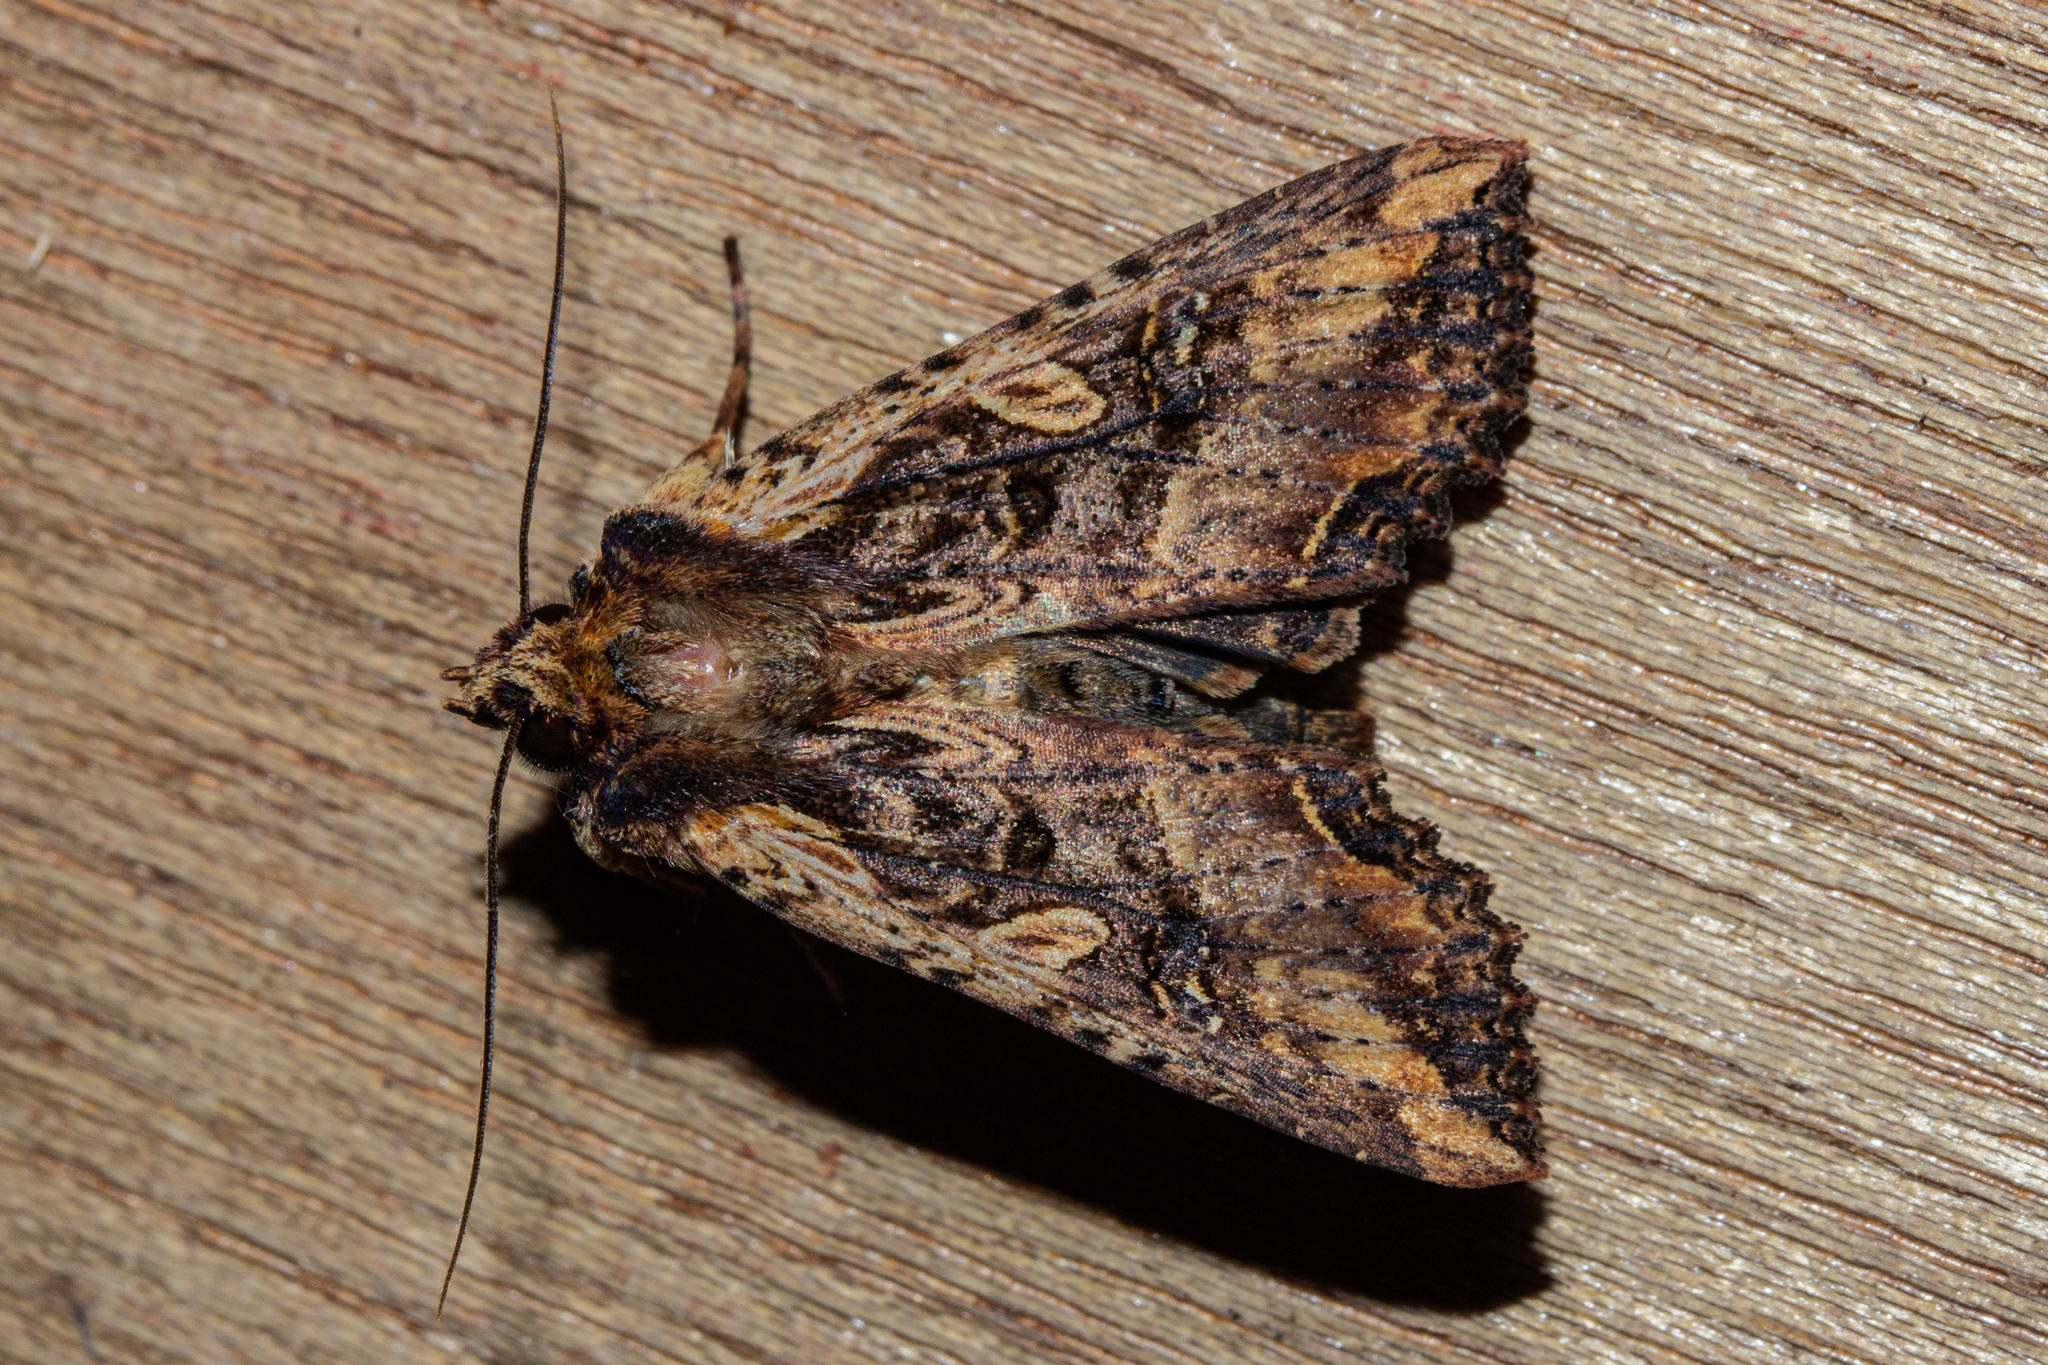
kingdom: Animalia
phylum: Arthropoda
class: Insecta
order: Lepidoptera
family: Noctuidae
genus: Meterana
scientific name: Meterana stipata
